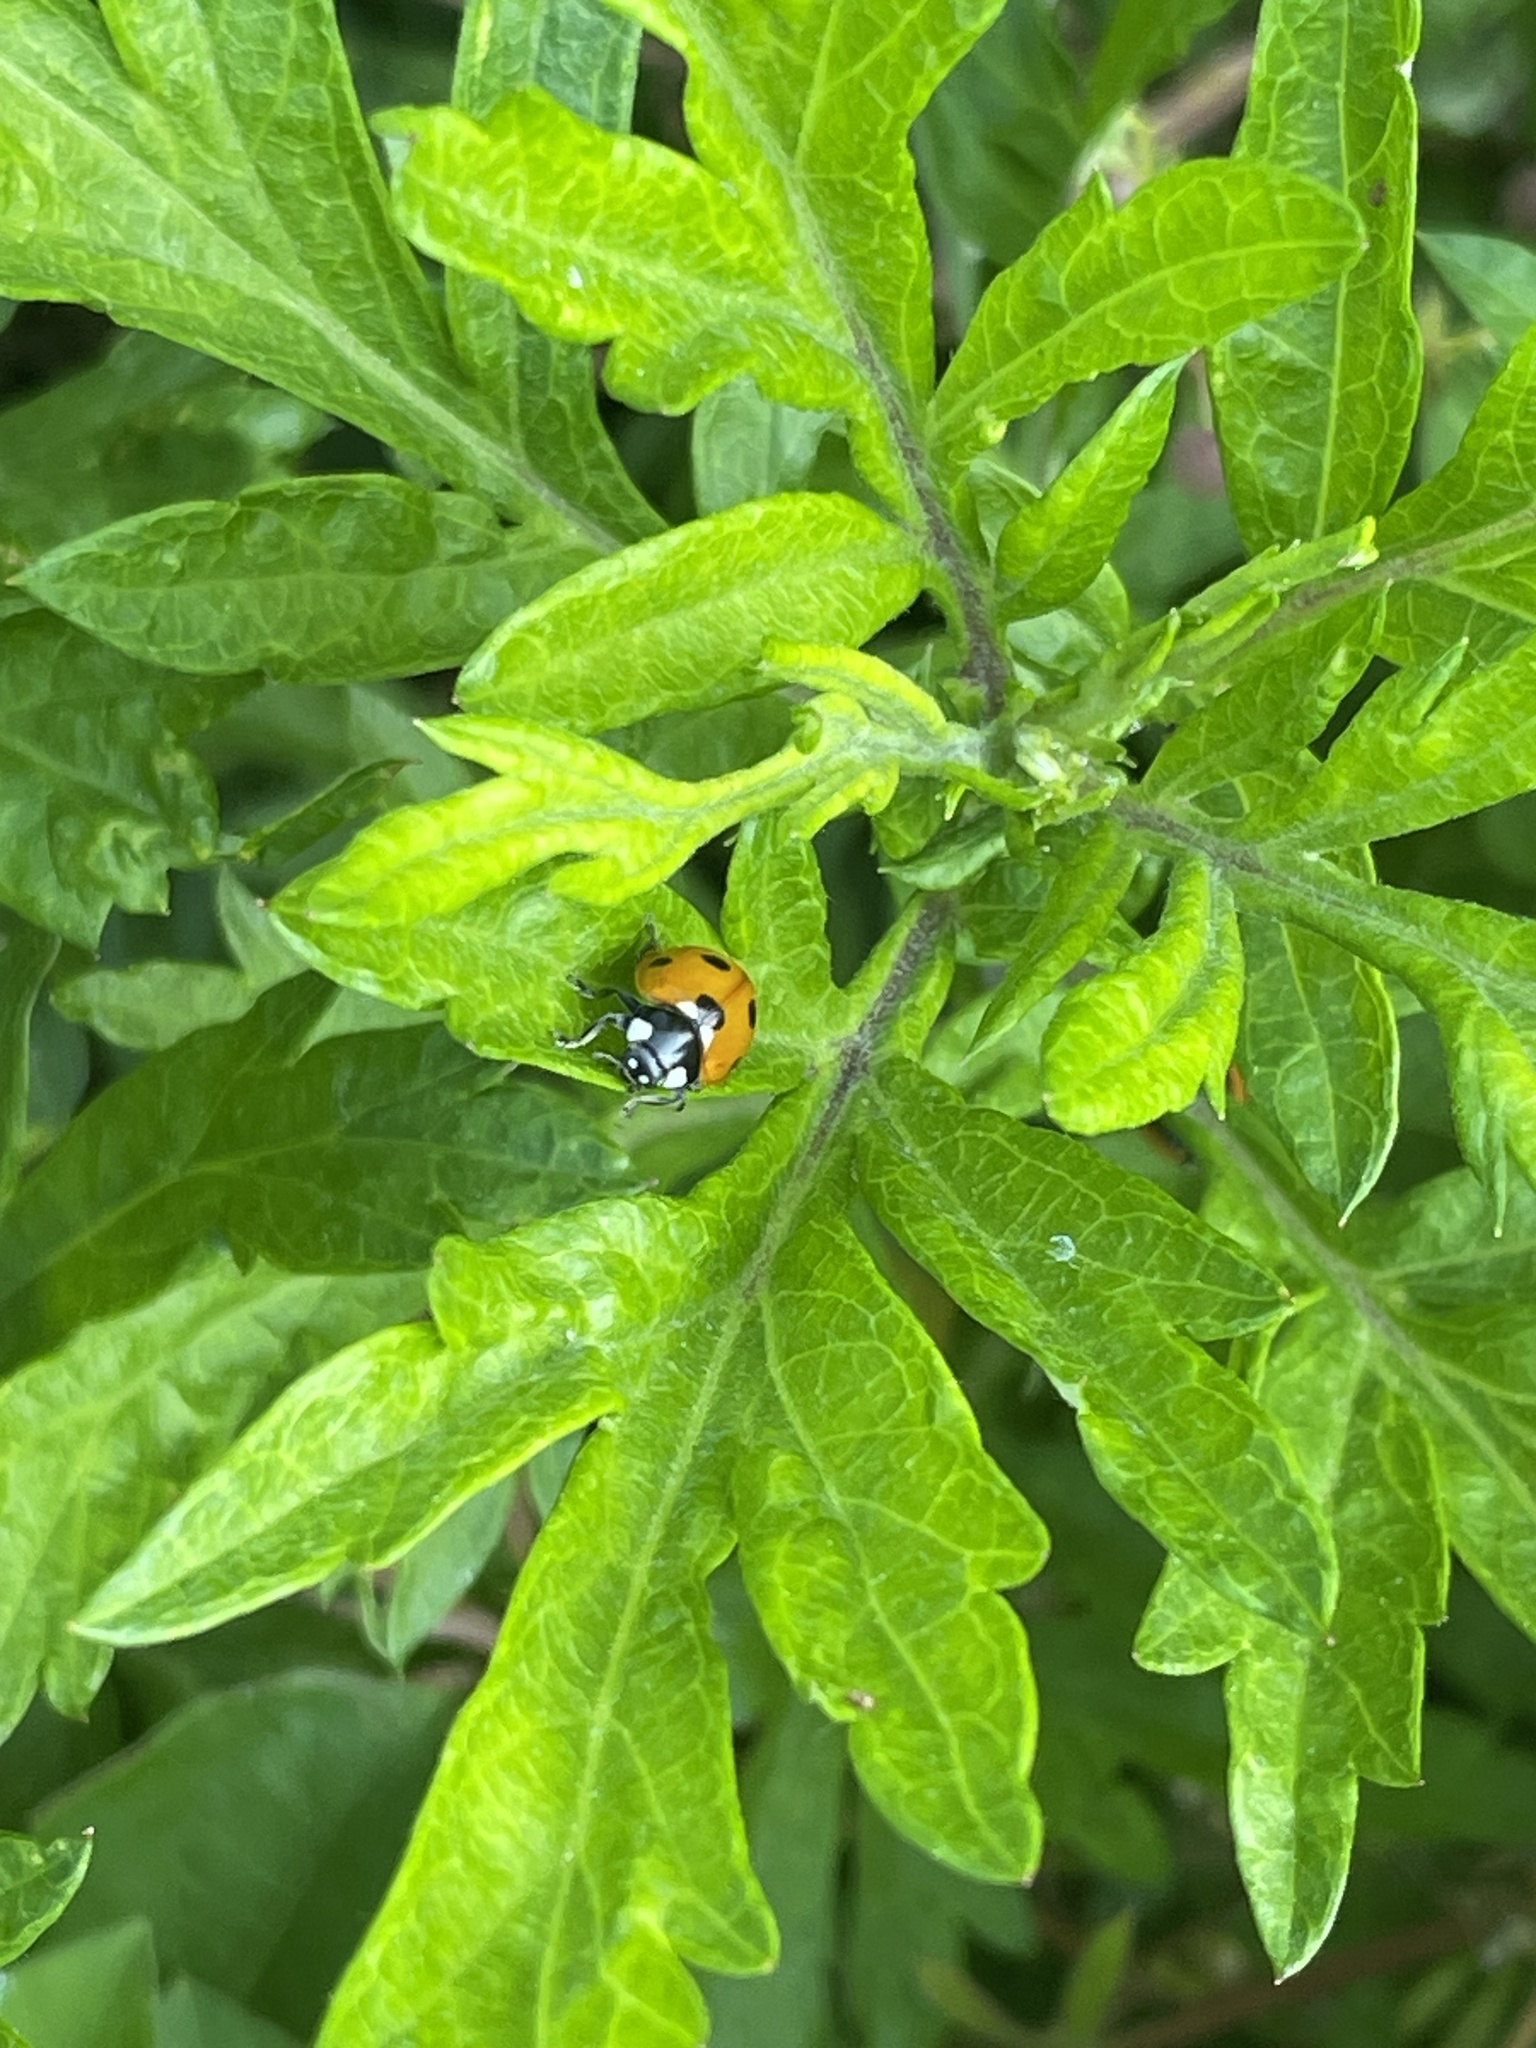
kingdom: Animalia
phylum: Arthropoda
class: Insecta
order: Coleoptera
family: Coccinellidae
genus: Coccinella
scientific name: Coccinella septempunctata
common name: Sevenspotted lady beetle
